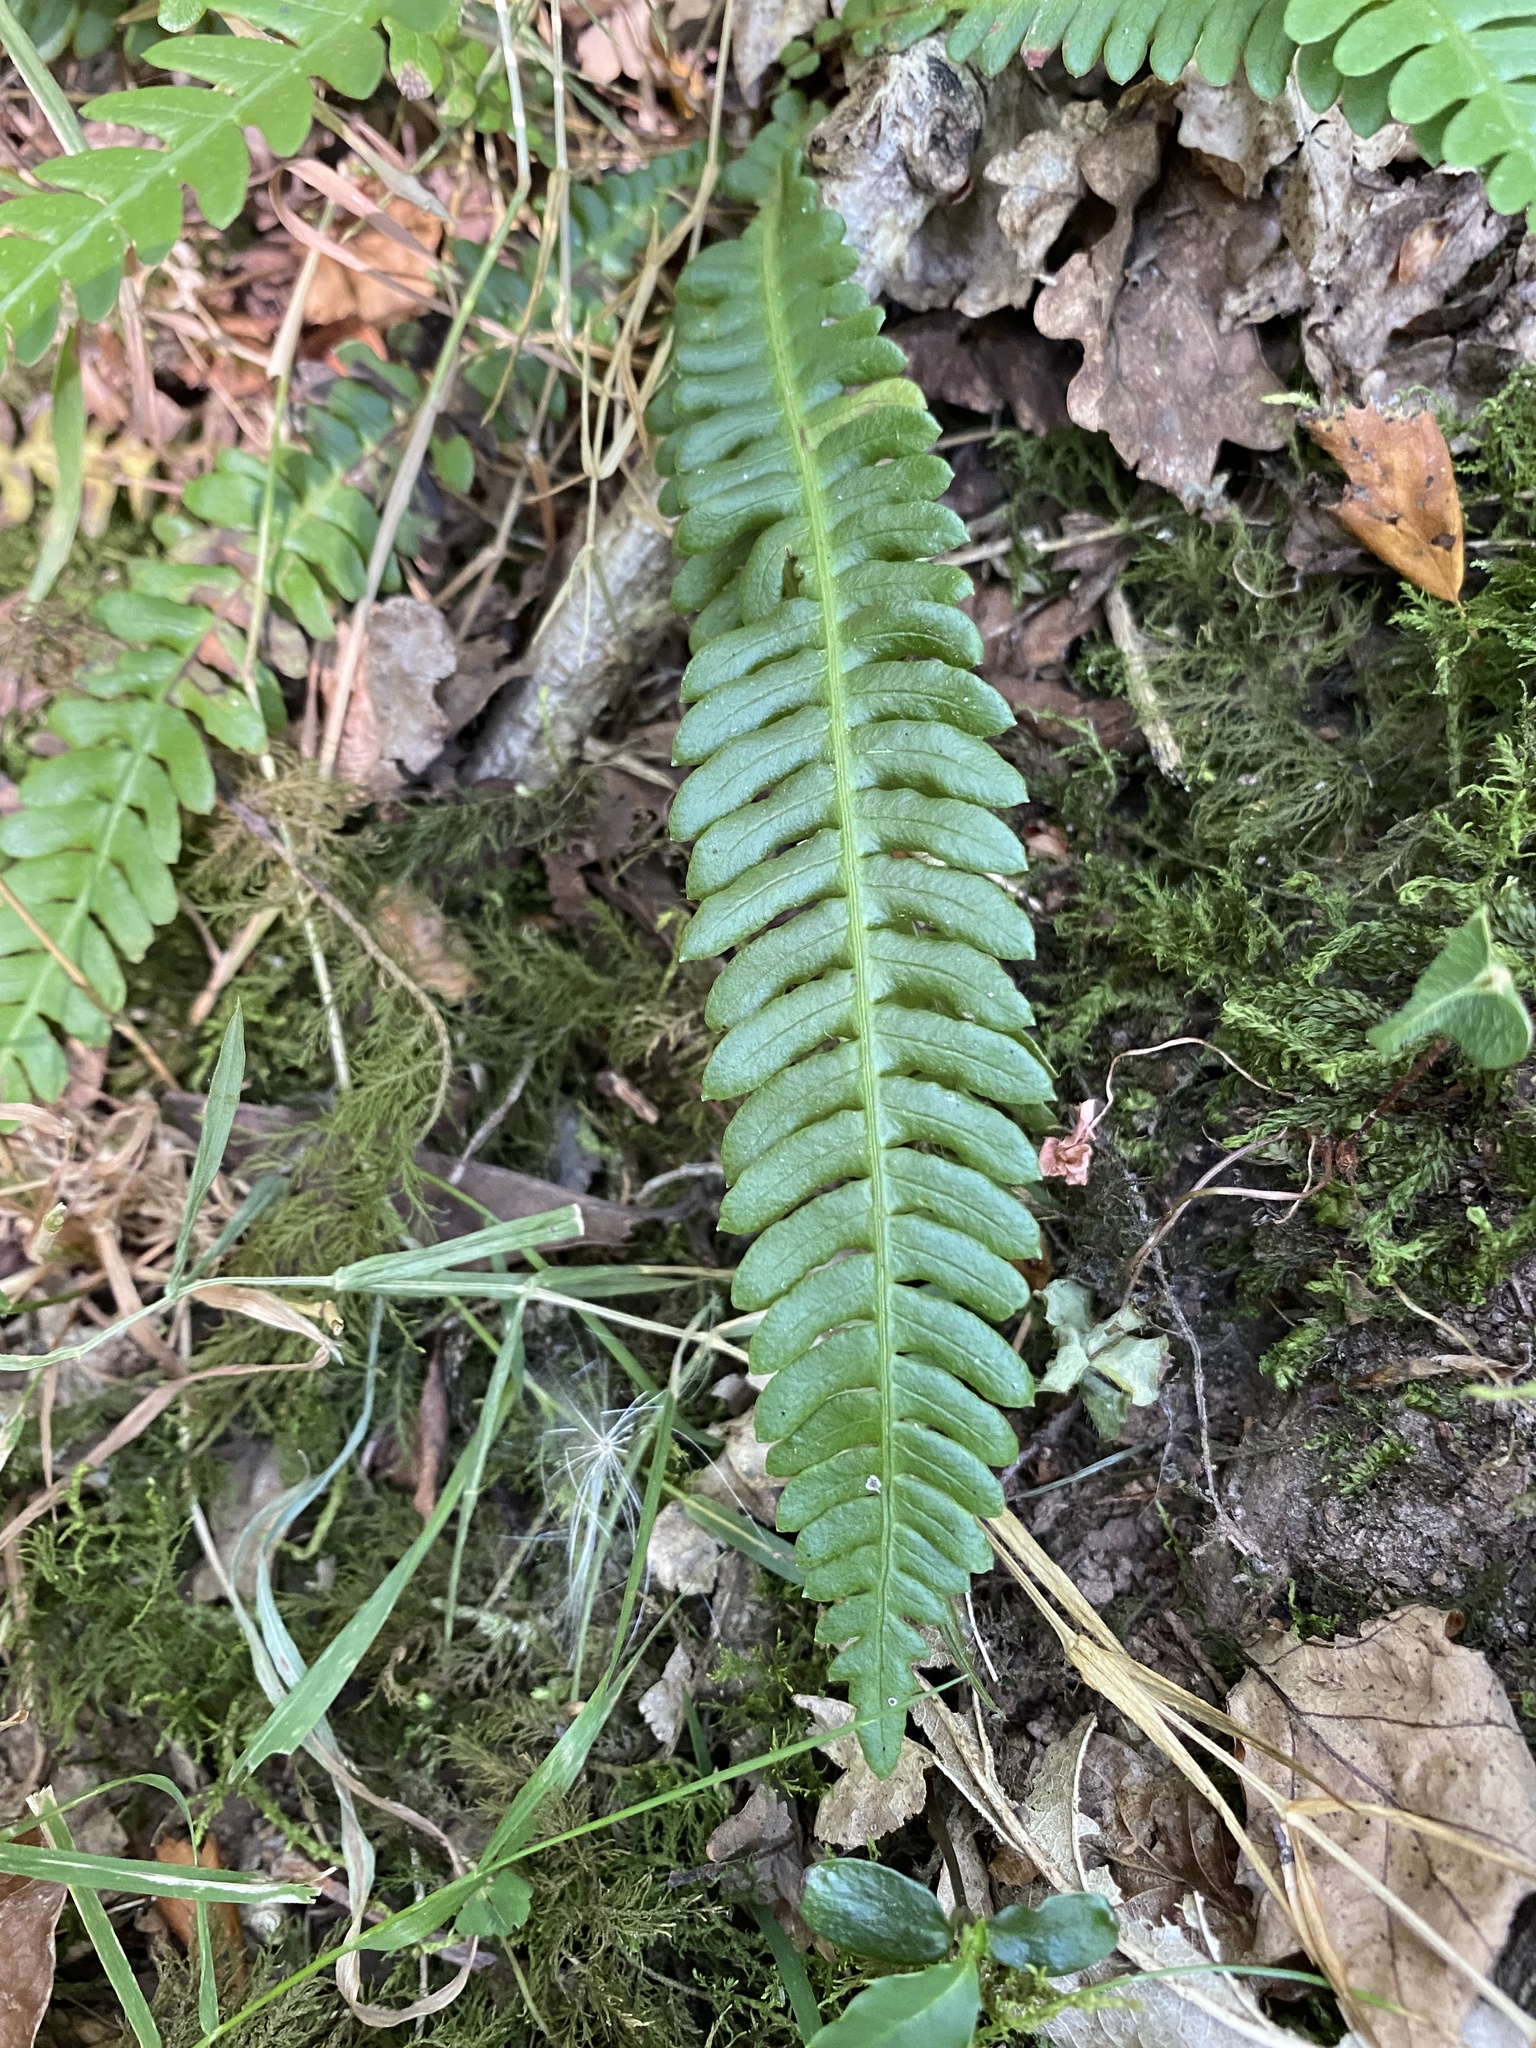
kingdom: Plantae
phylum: Tracheophyta
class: Polypodiopsida
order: Polypodiales
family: Blechnaceae
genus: Struthiopteris
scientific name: Struthiopteris spicant
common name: Deer fern
